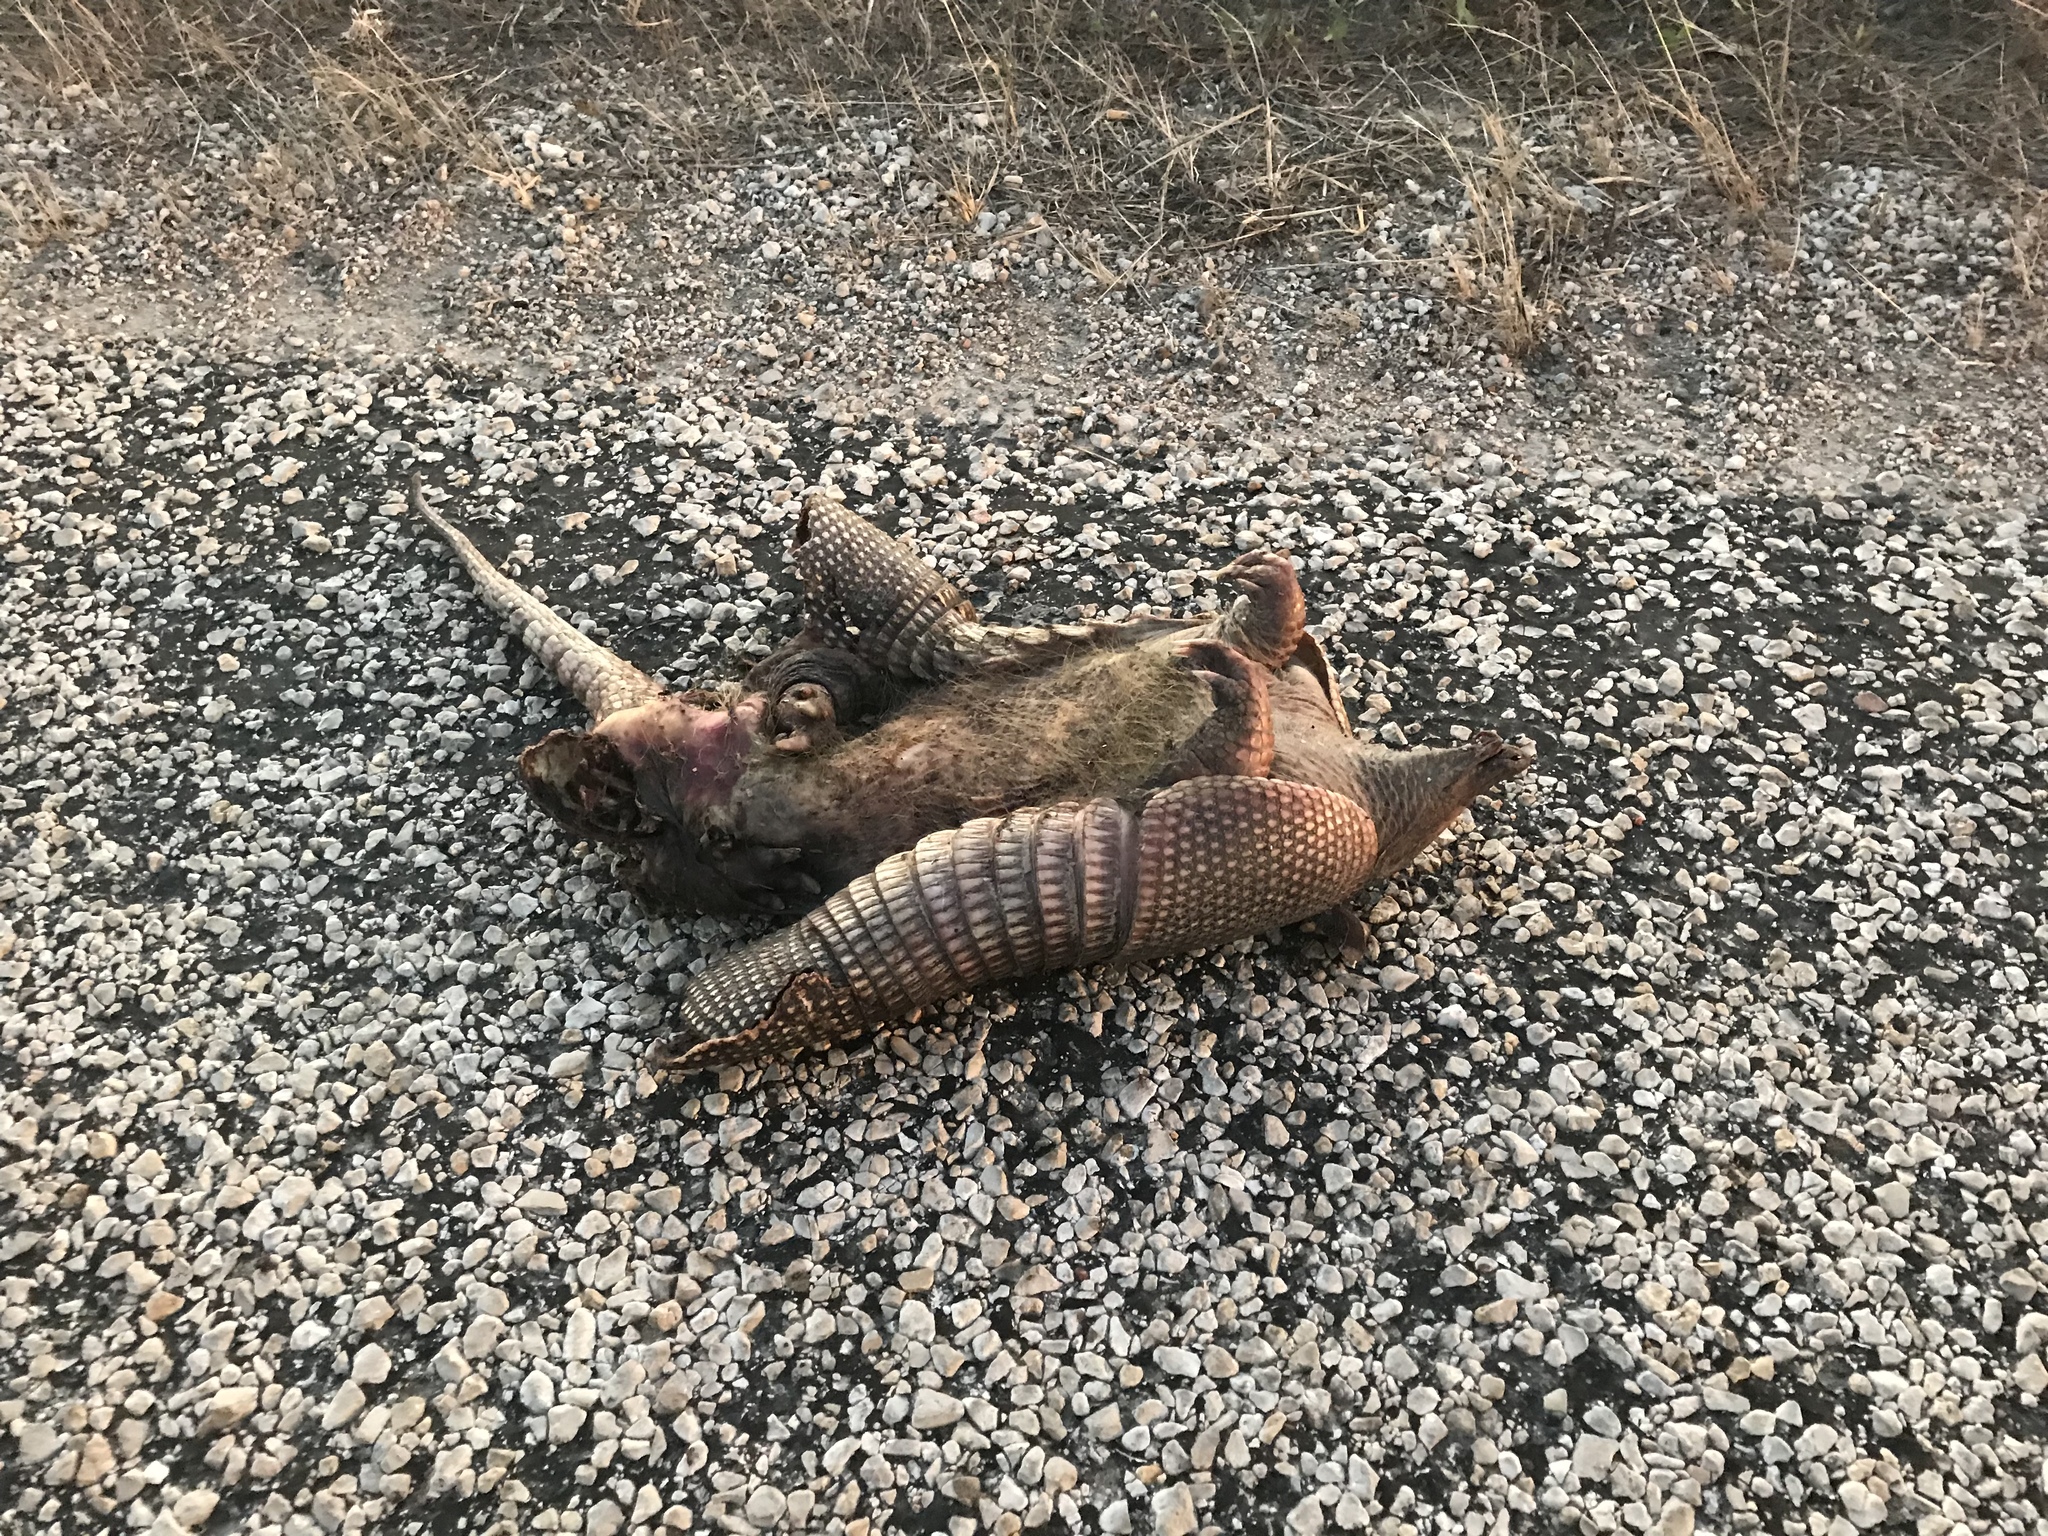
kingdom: Animalia
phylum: Chordata
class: Mammalia
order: Cingulata
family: Dasypodidae
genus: Dasypus
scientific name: Dasypus novemcinctus
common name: Nine-banded armadillo
